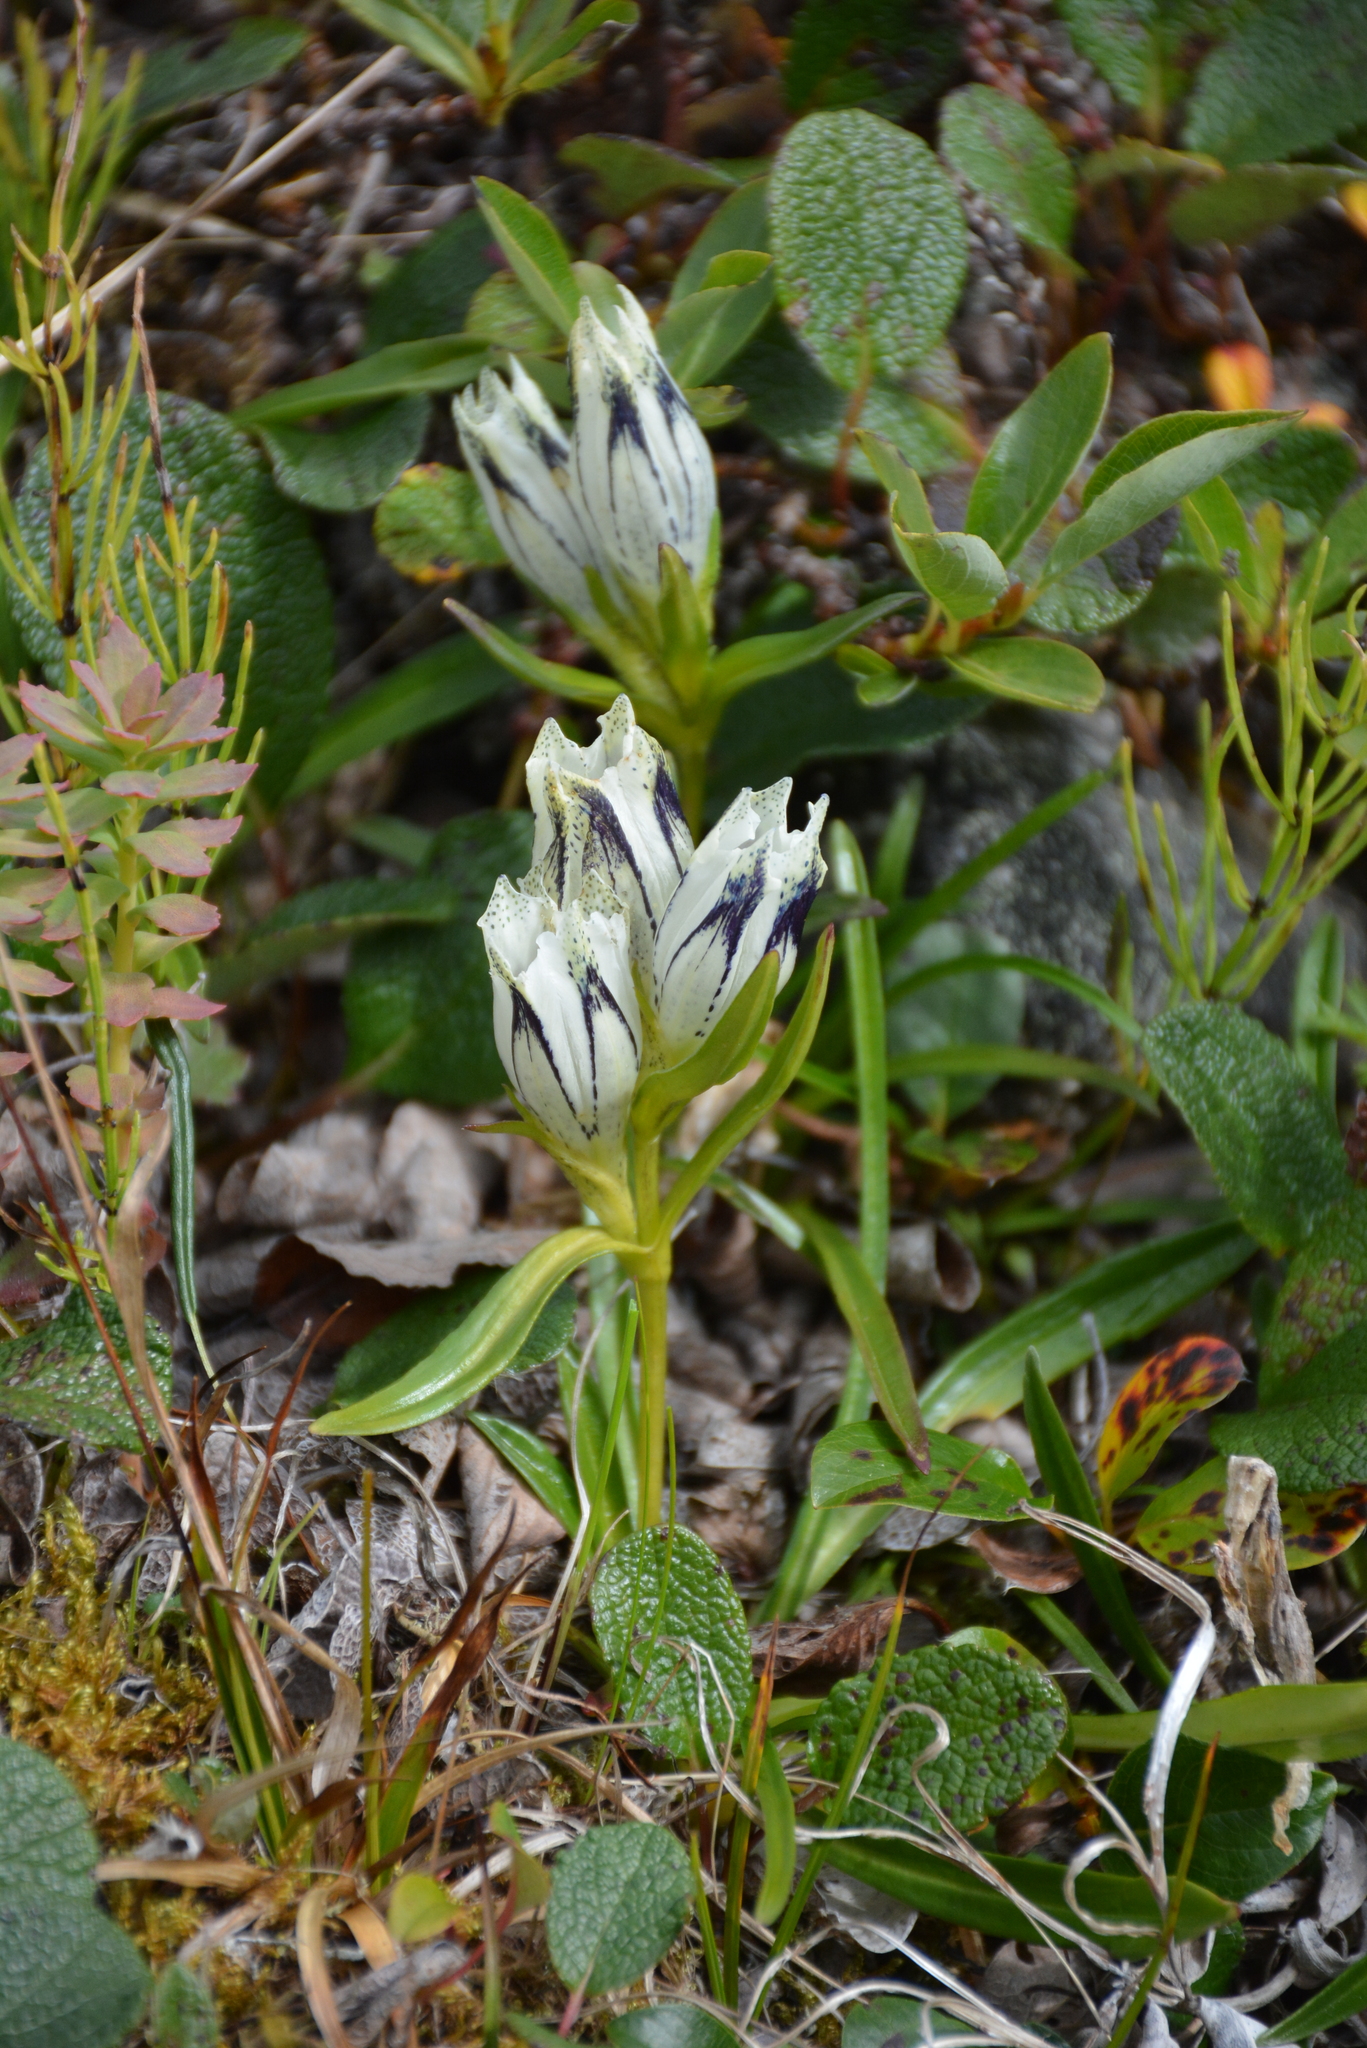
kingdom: Plantae
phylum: Tracheophyta
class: Magnoliopsida
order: Gentianales
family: Gentianaceae
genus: Gentiana
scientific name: Gentiana algida
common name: Arctic gentian
